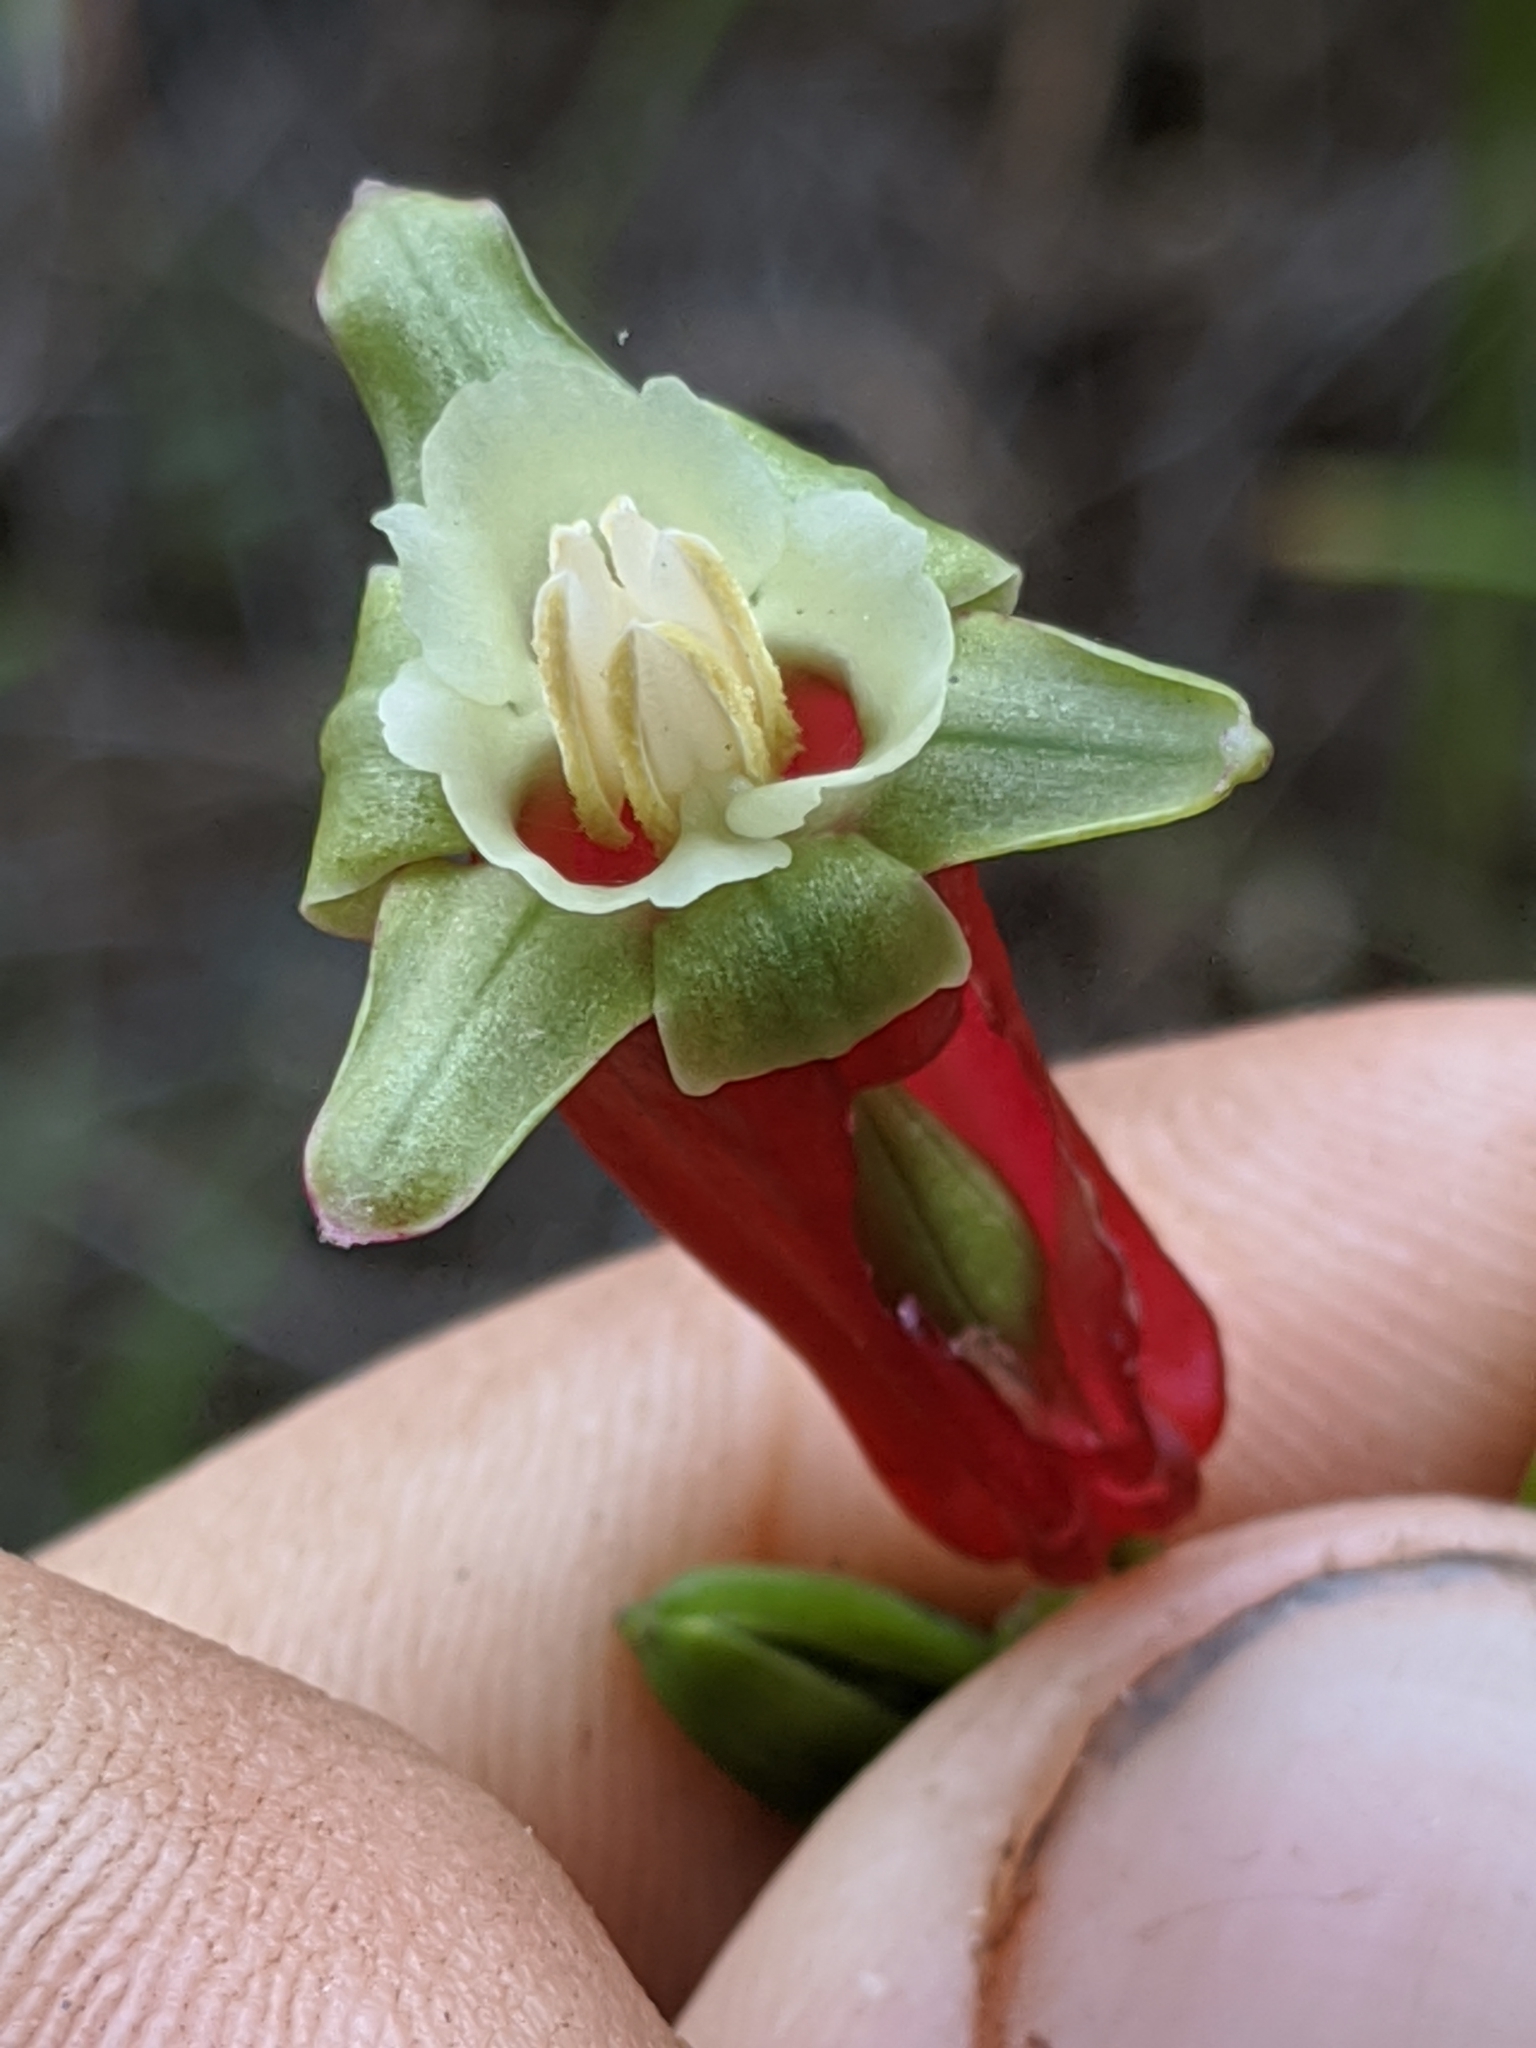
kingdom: Plantae
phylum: Tracheophyta
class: Liliopsida
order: Asparagales
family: Asparagaceae
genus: Dichelostemma
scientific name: Dichelostemma ida-maia
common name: Firecracker-flower
